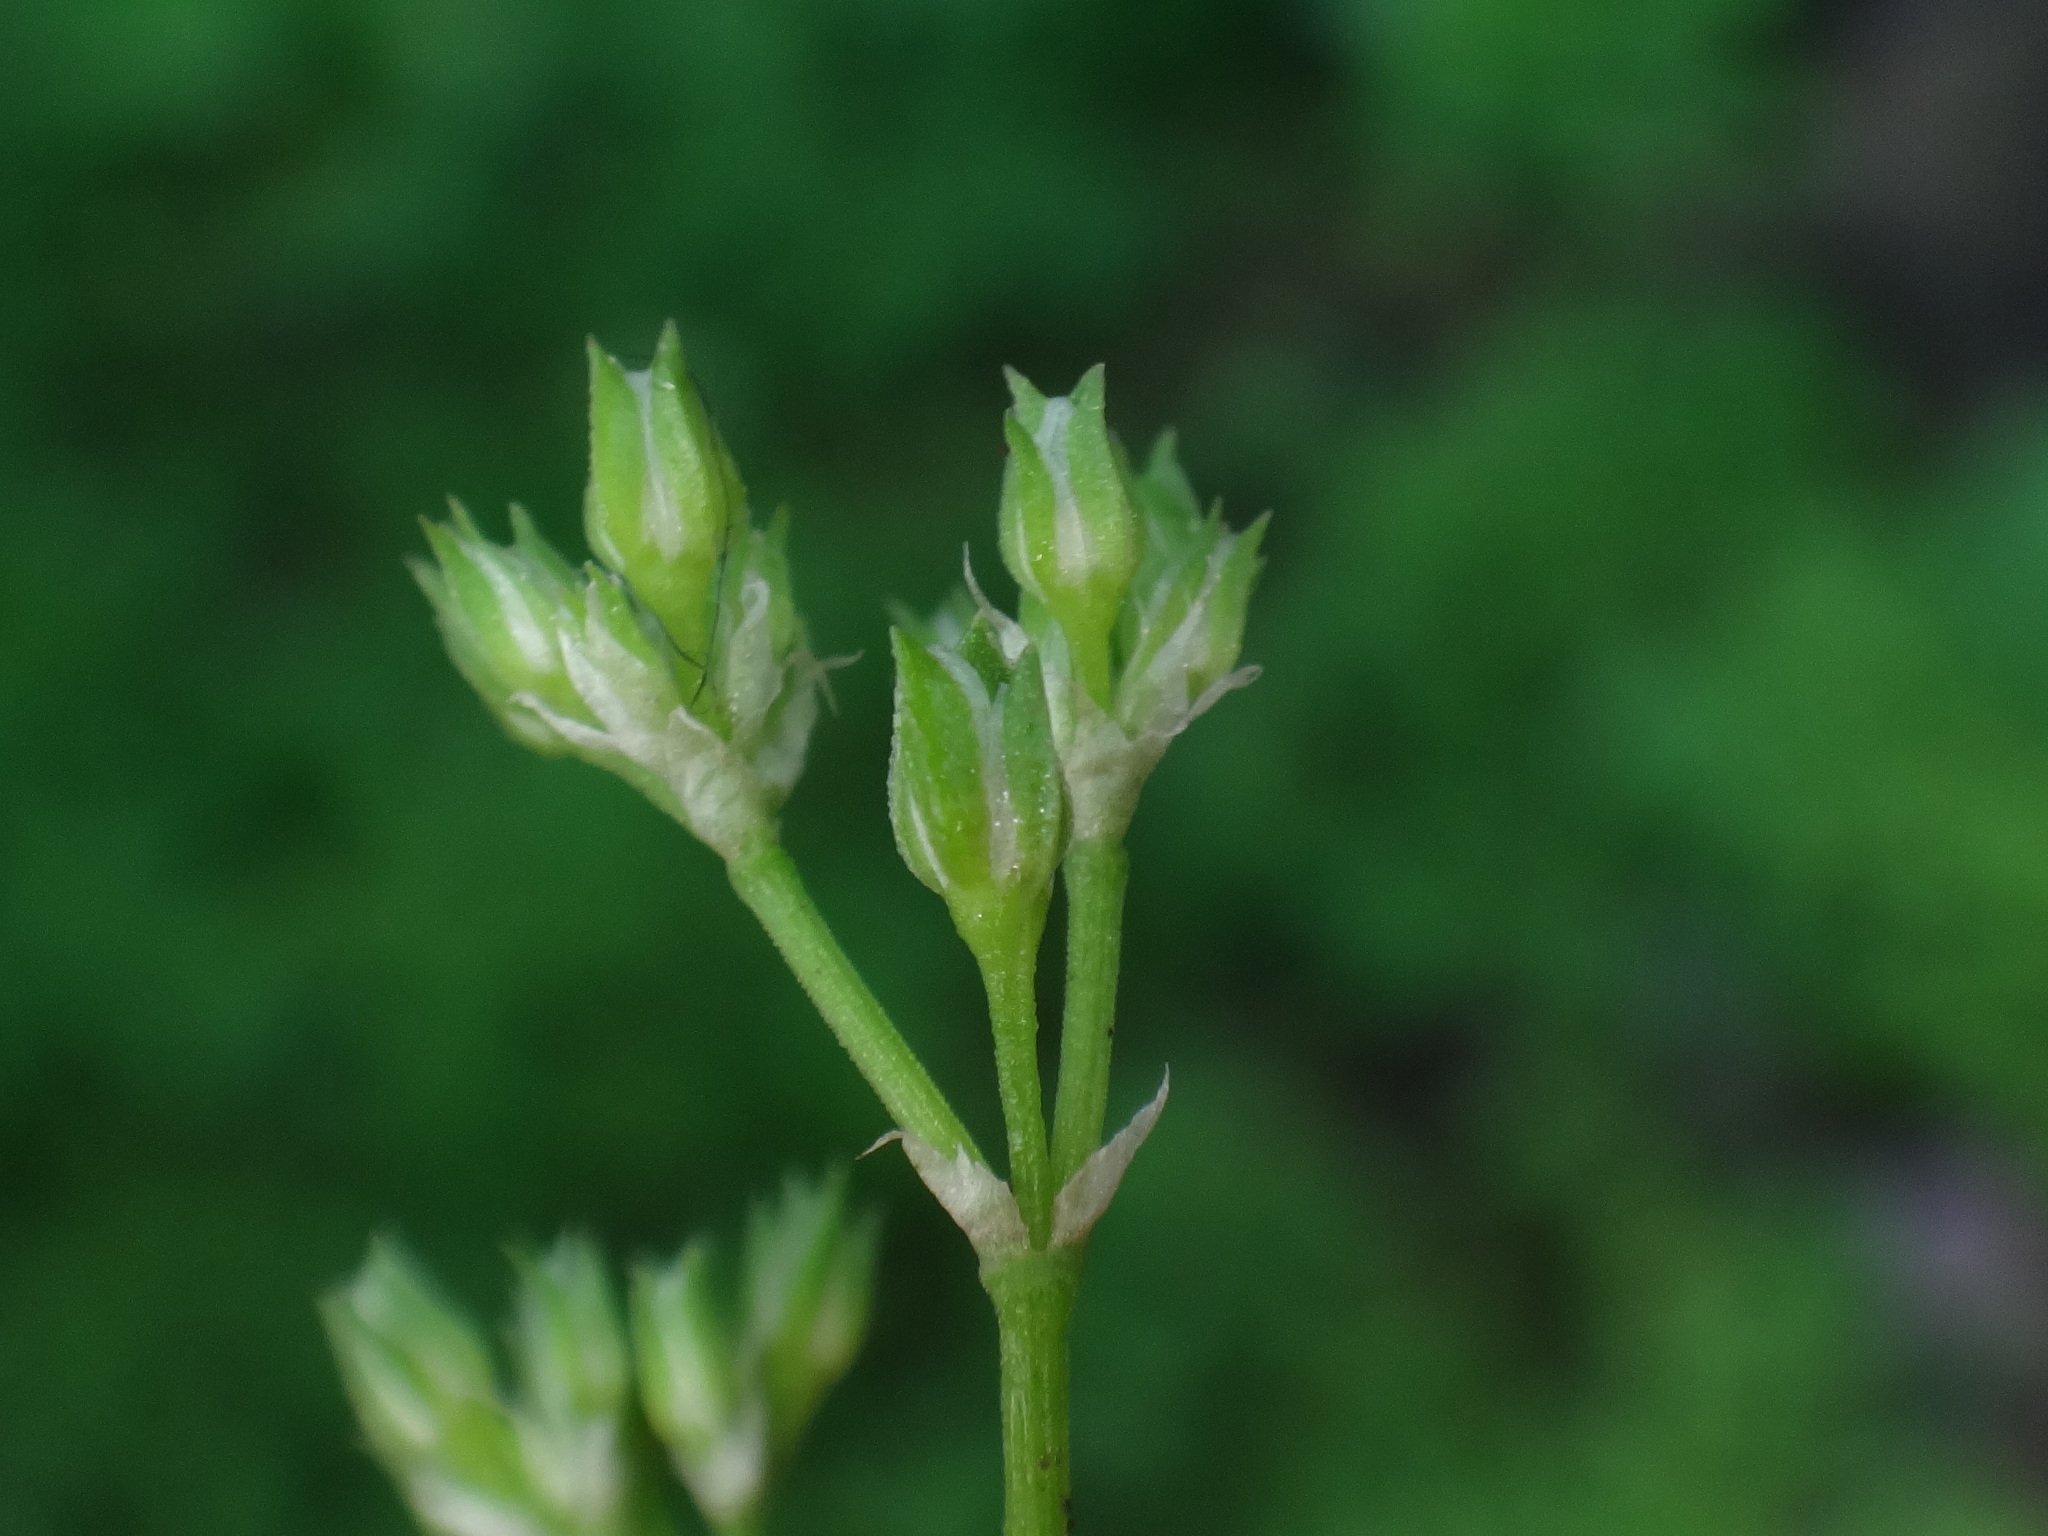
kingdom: Plantae
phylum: Tracheophyta
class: Magnoliopsida
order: Caryophyllales
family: Caryophyllaceae
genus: Polycarpon
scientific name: Polycarpon tetraphyllum
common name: Four-leaved all-seed
